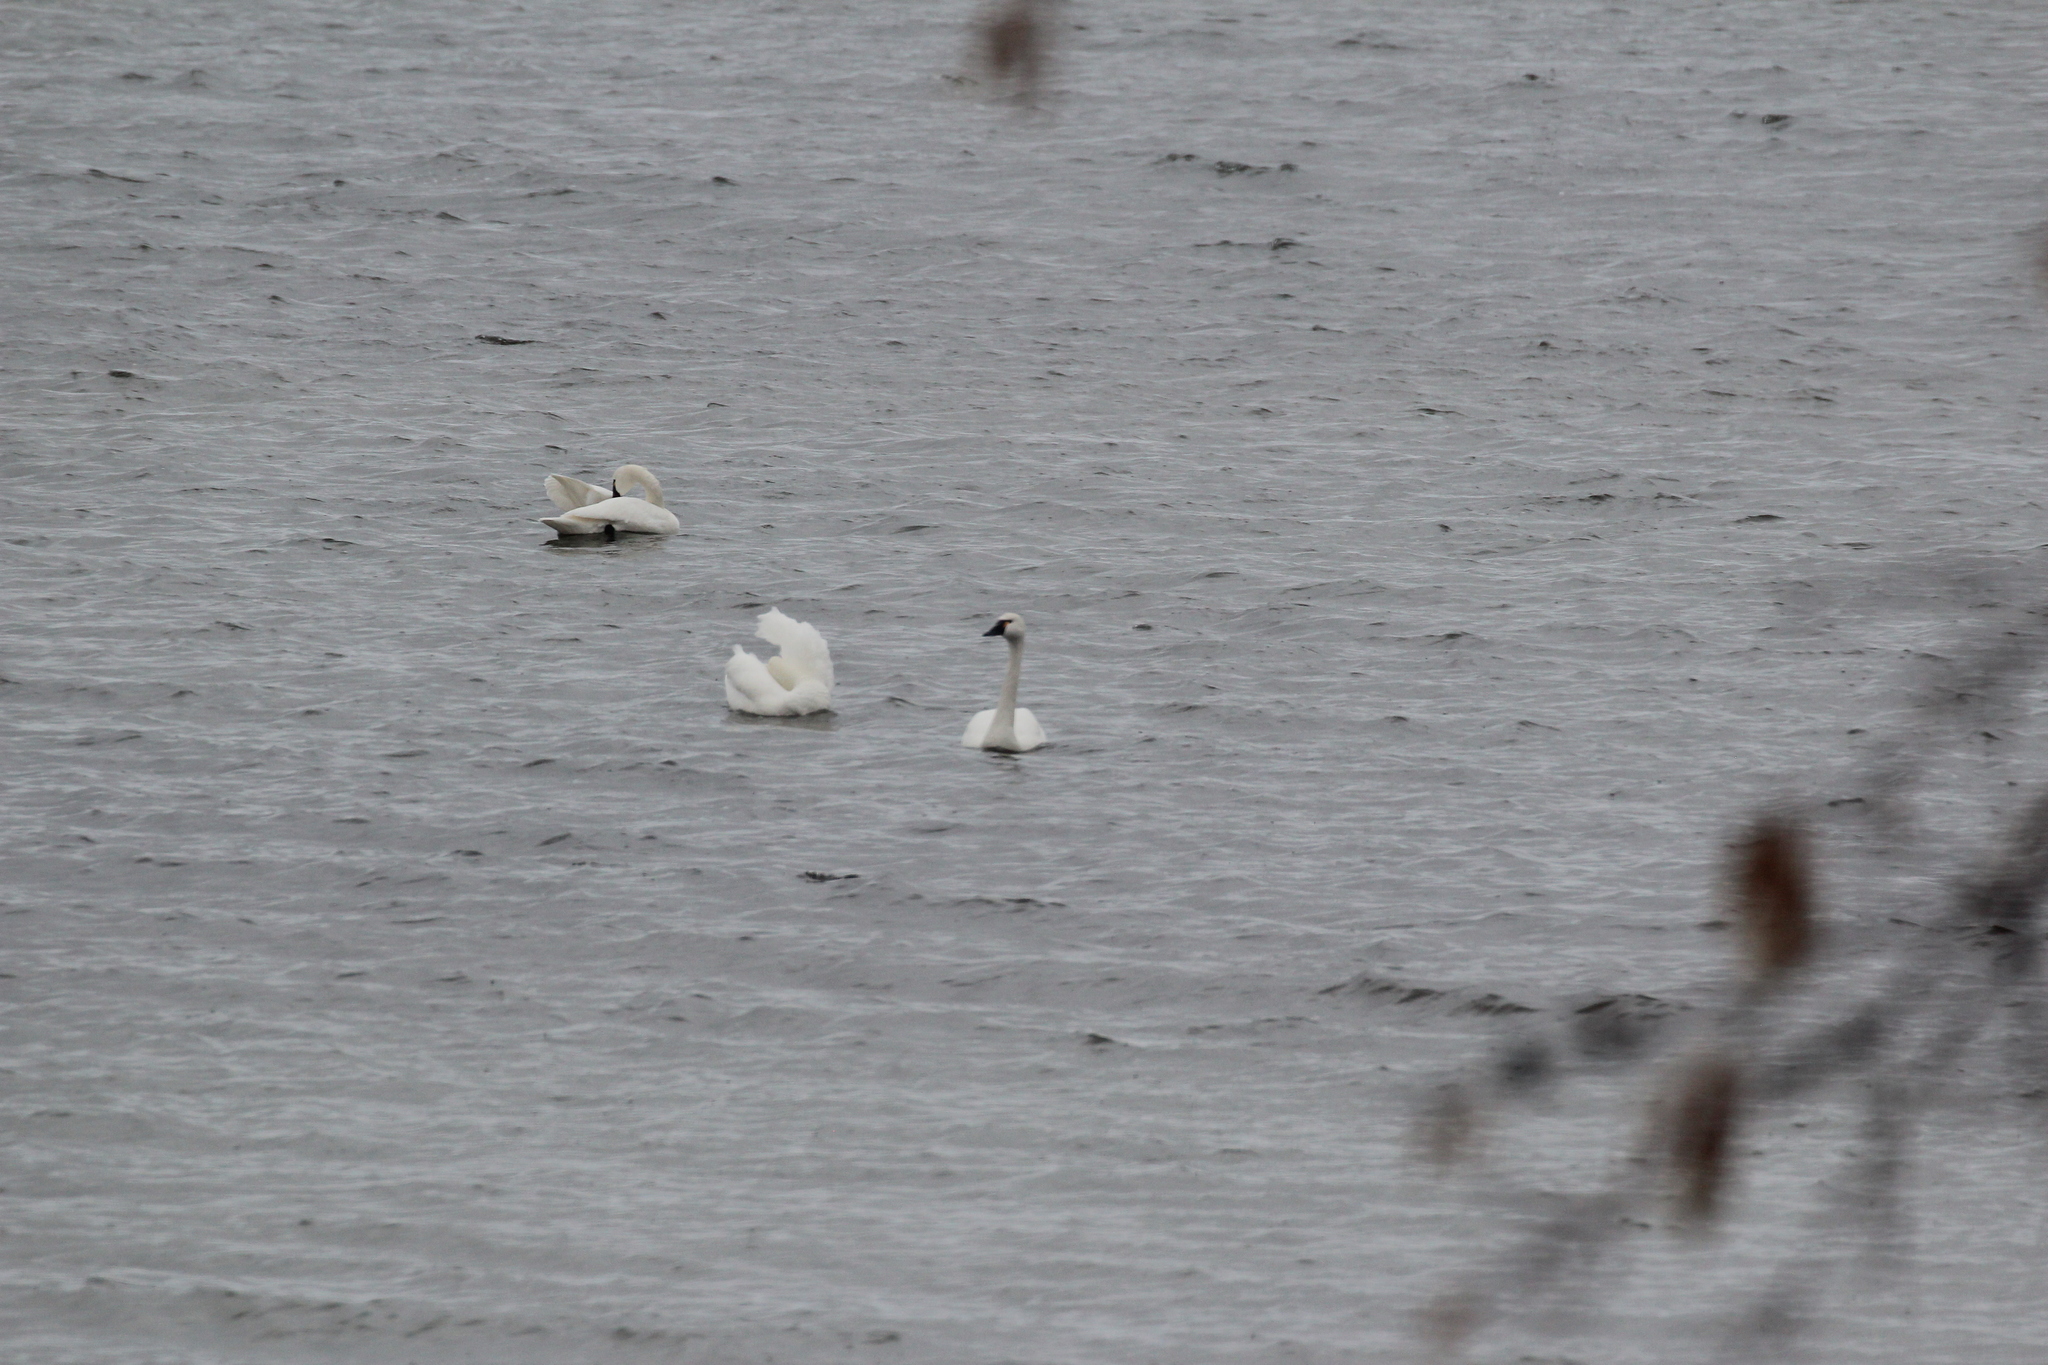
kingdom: Animalia
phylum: Chordata
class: Aves
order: Anseriformes
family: Anatidae
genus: Cygnus
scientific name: Cygnus columbianus
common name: Tundra swan
